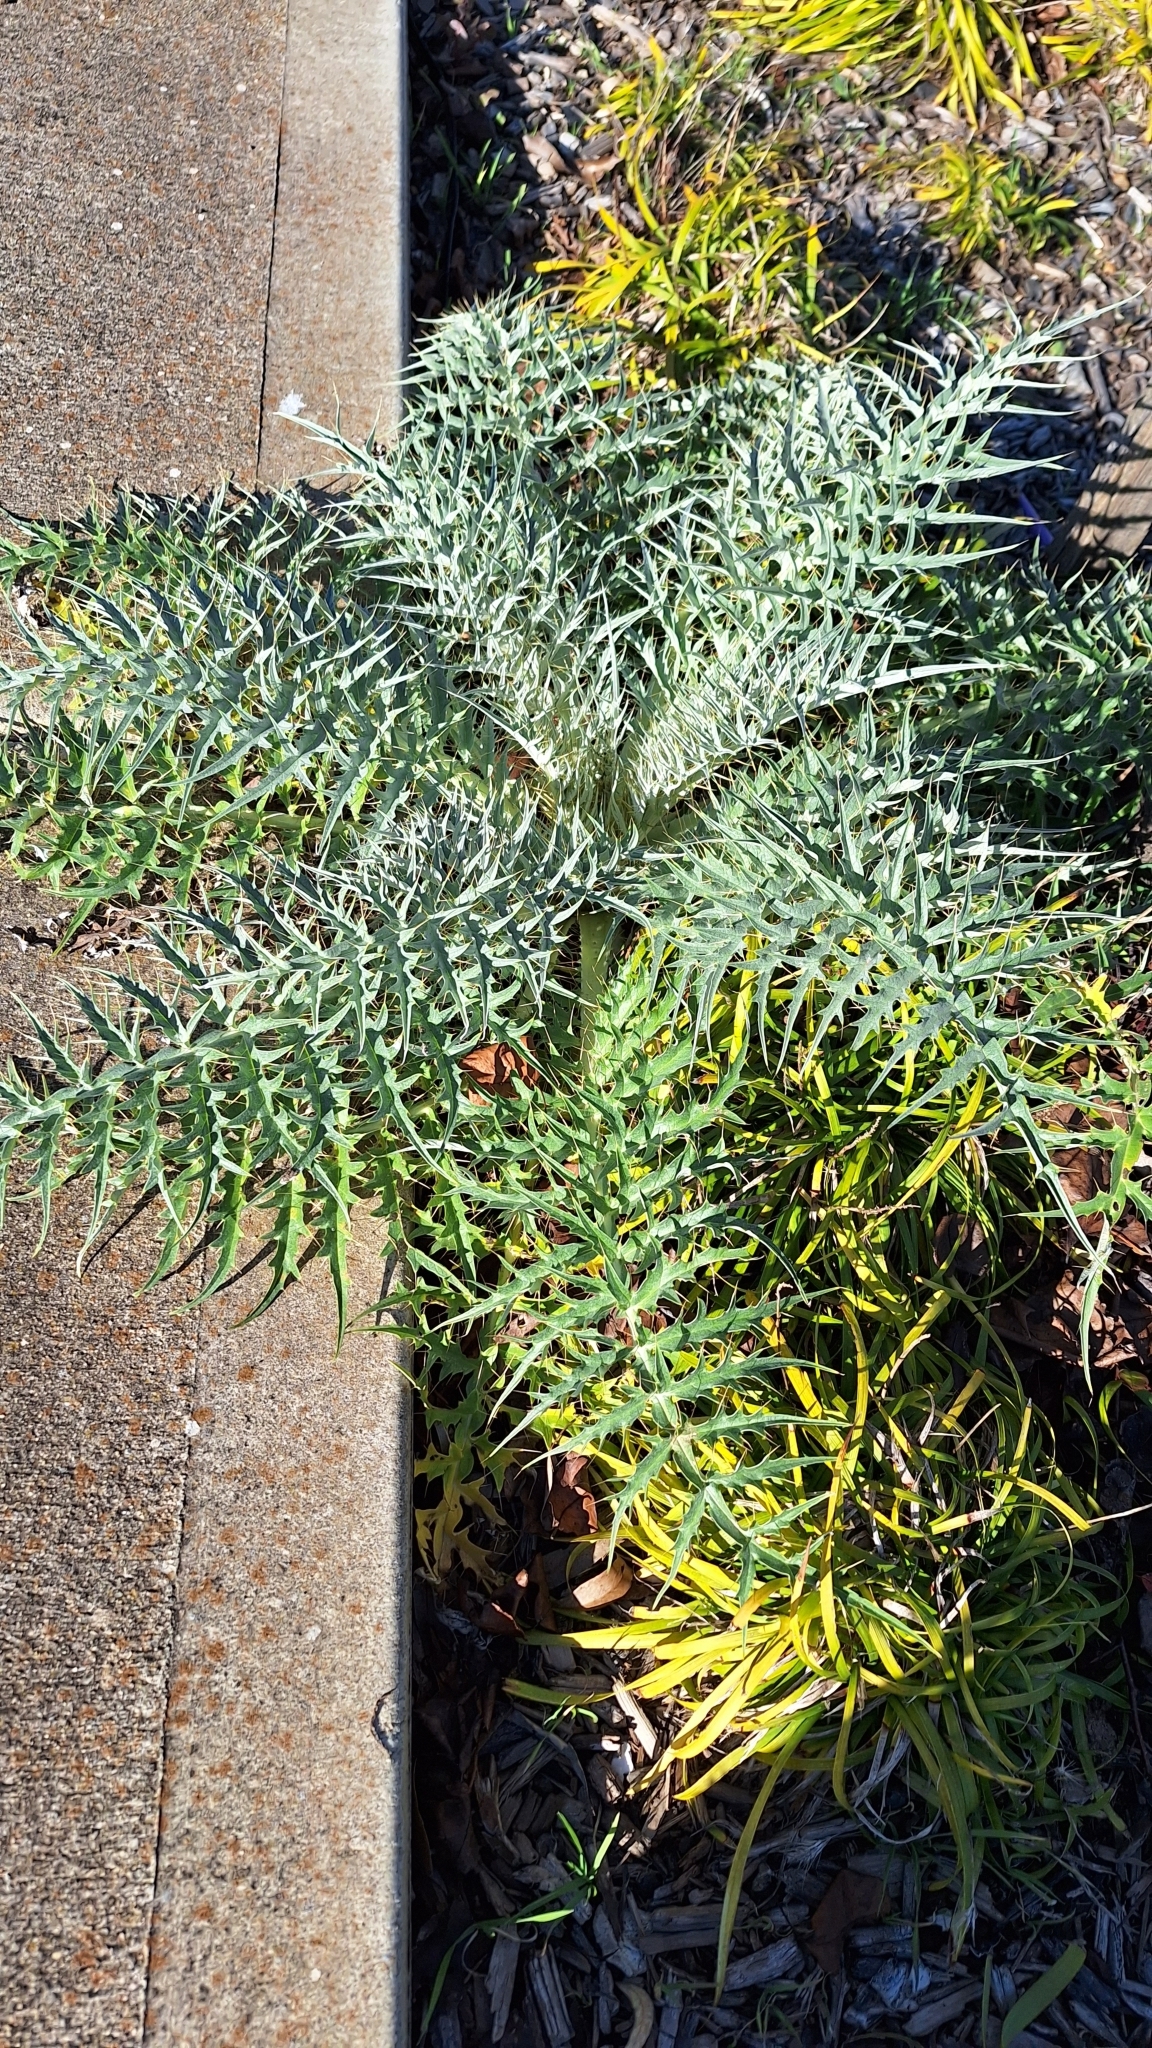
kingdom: Plantae
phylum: Tracheophyta
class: Magnoliopsida
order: Asterales
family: Asteraceae
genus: Cynara
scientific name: Cynara cardunculus
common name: Globe artichoke
